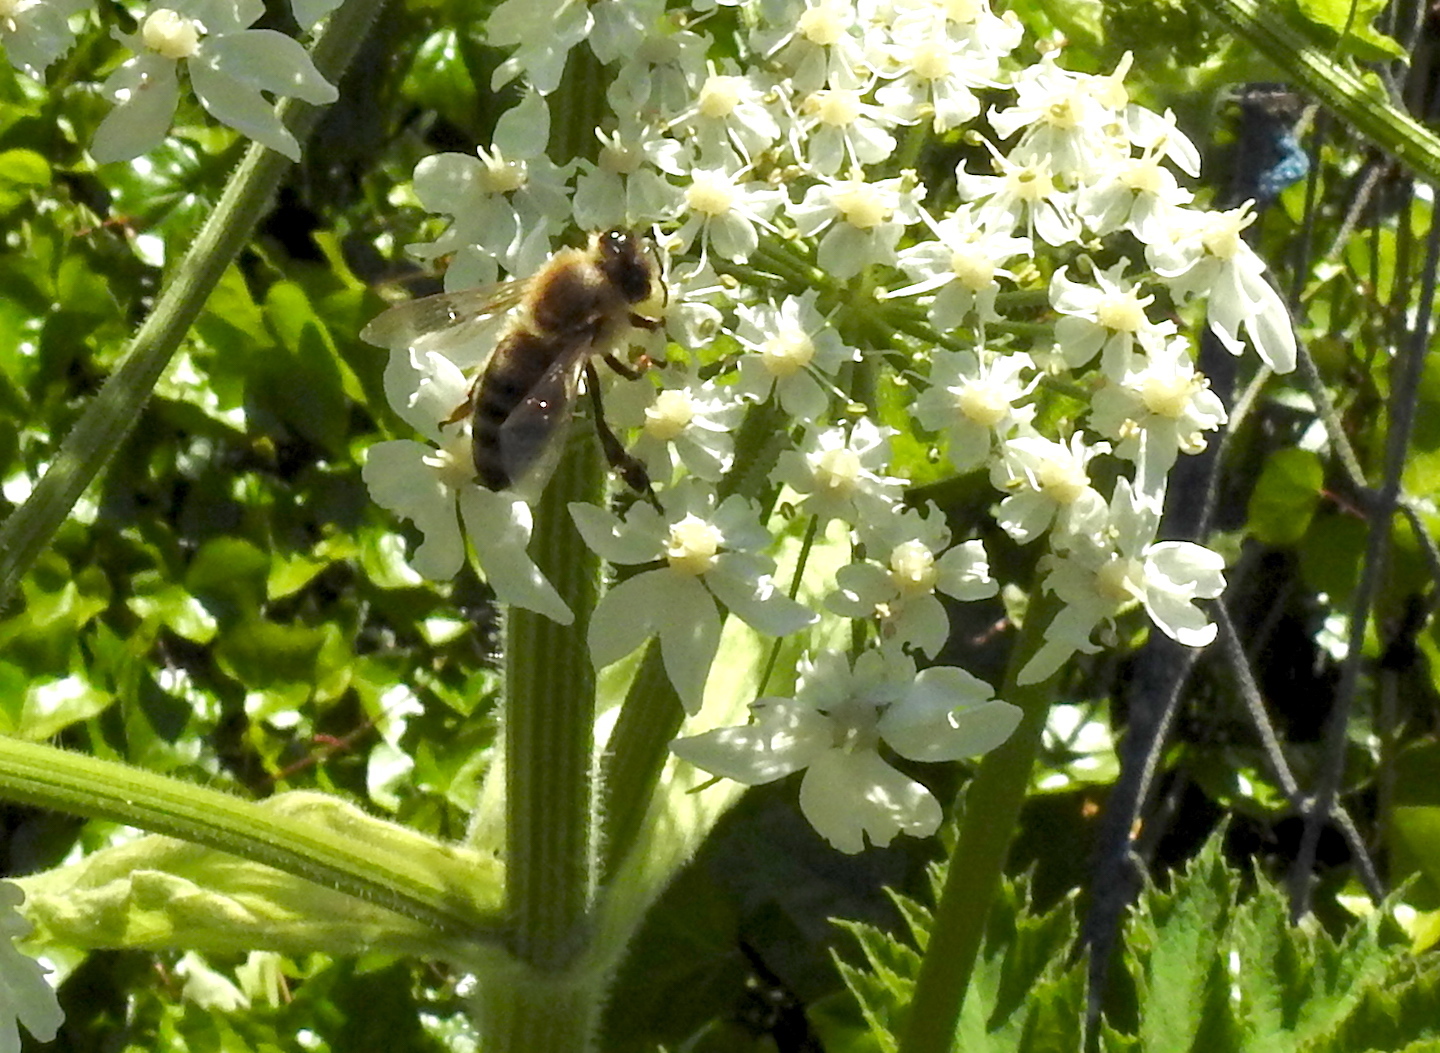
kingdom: Animalia
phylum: Arthropoda
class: Insecta
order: Hymenoptera
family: Apidae
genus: Apis
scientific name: Apis mellifera
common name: Honey bee
